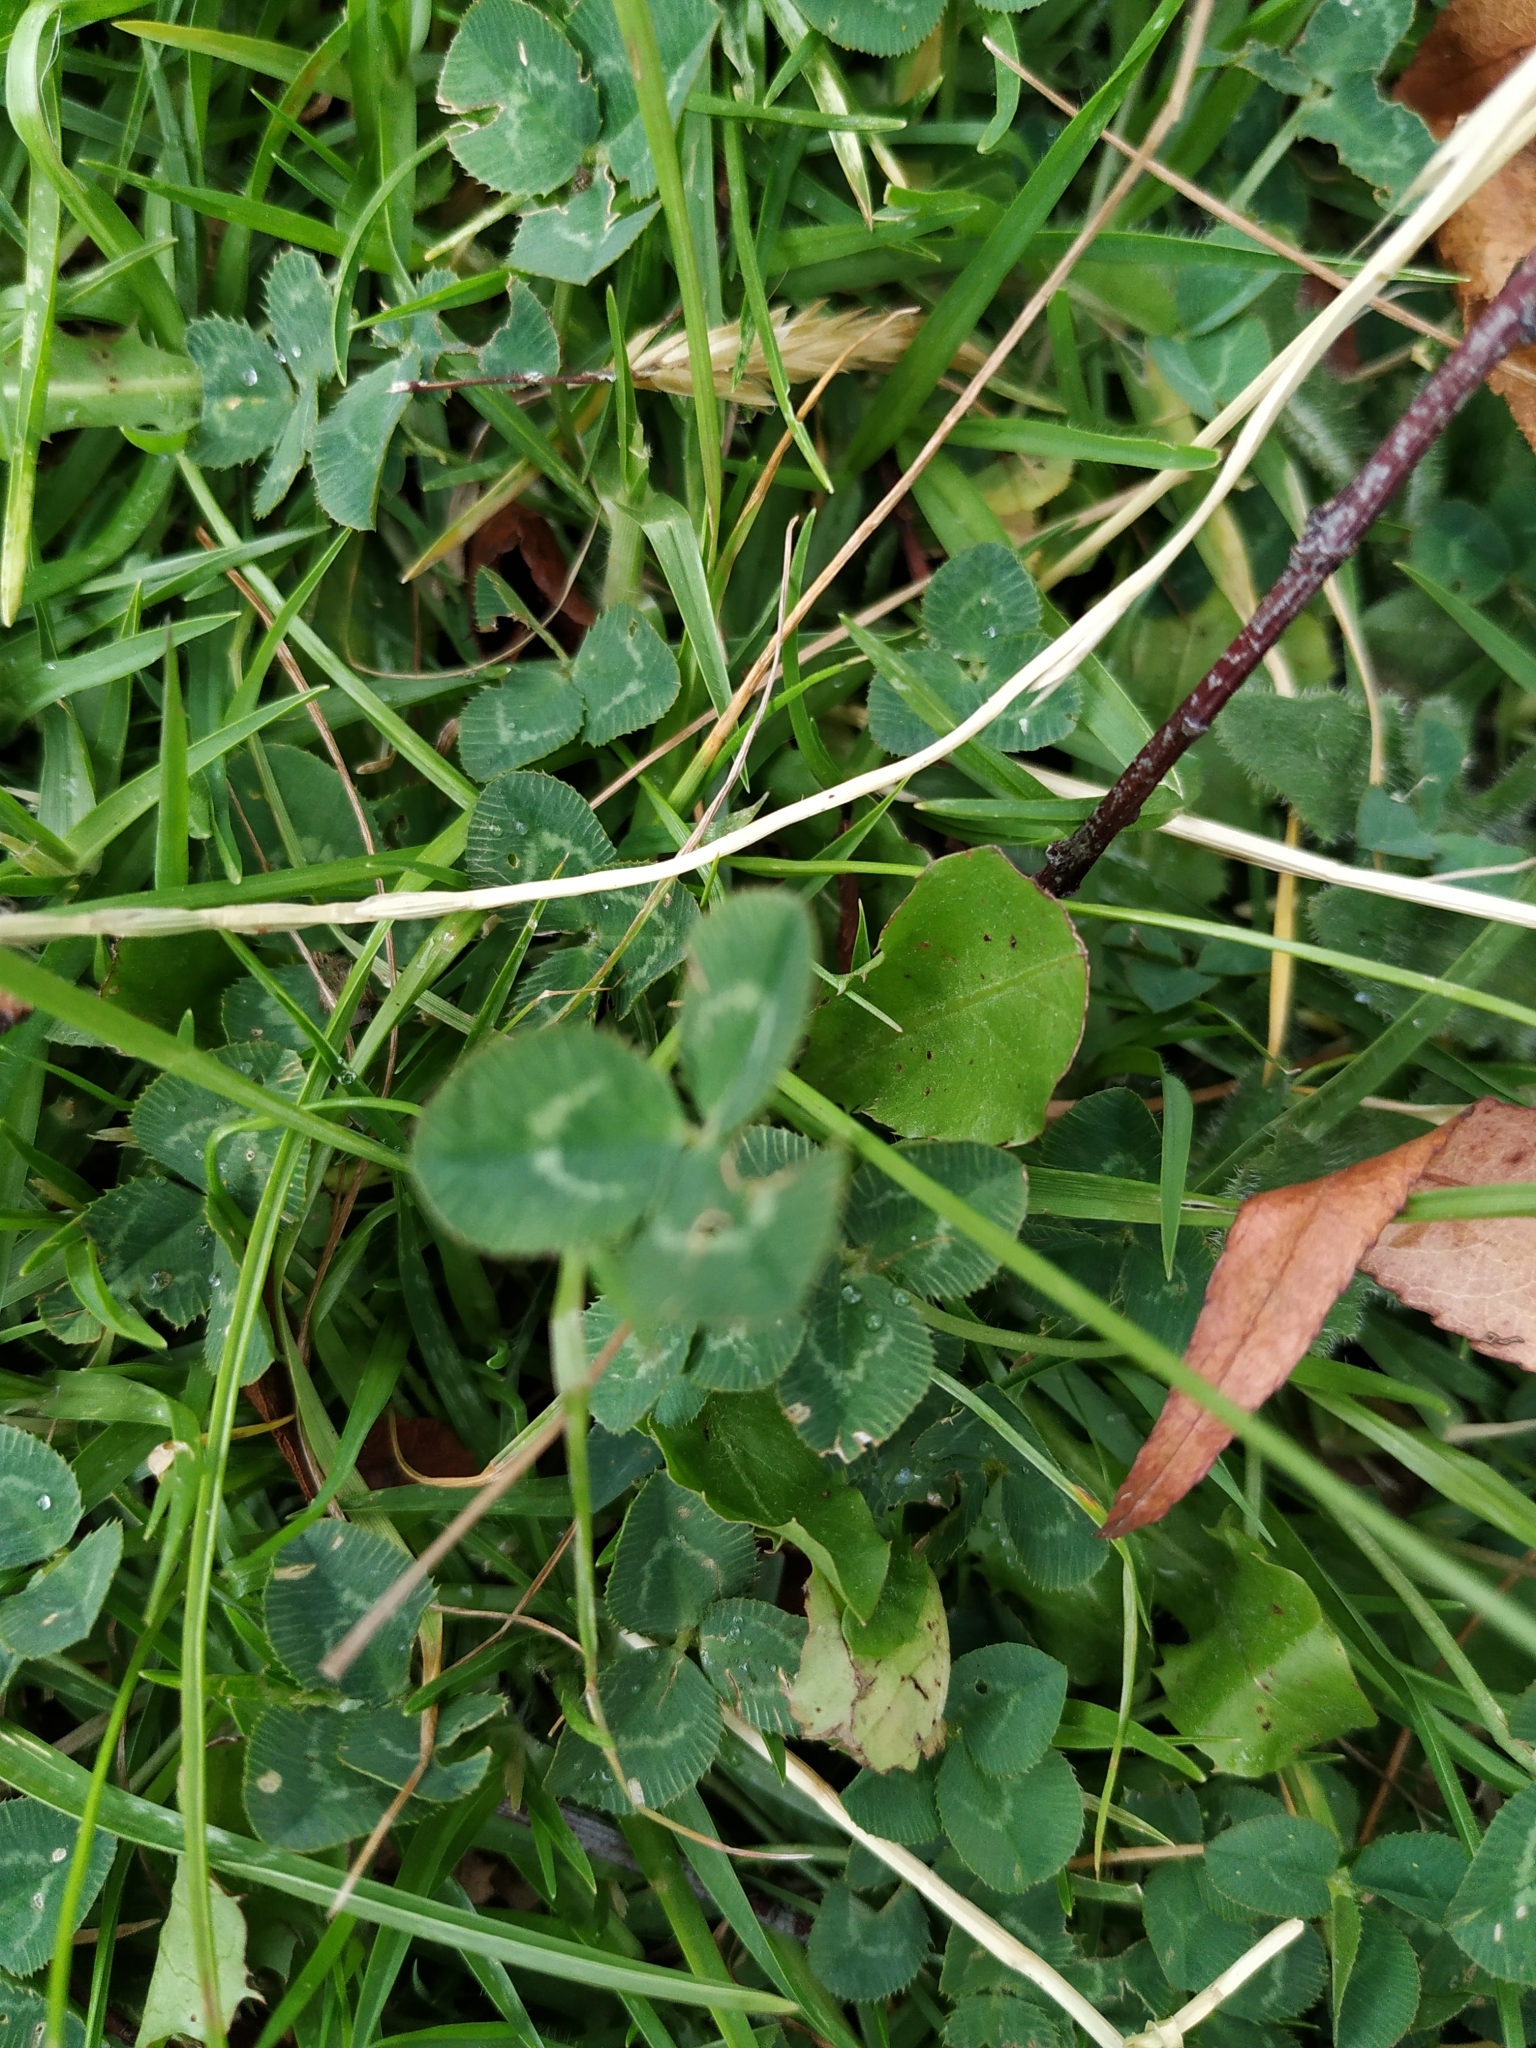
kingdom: Plantae
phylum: Tracheophyta
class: Magnoliopsida
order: Fabales
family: Fabaceae
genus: Trifolium
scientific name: Trifolium repens
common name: White clover
